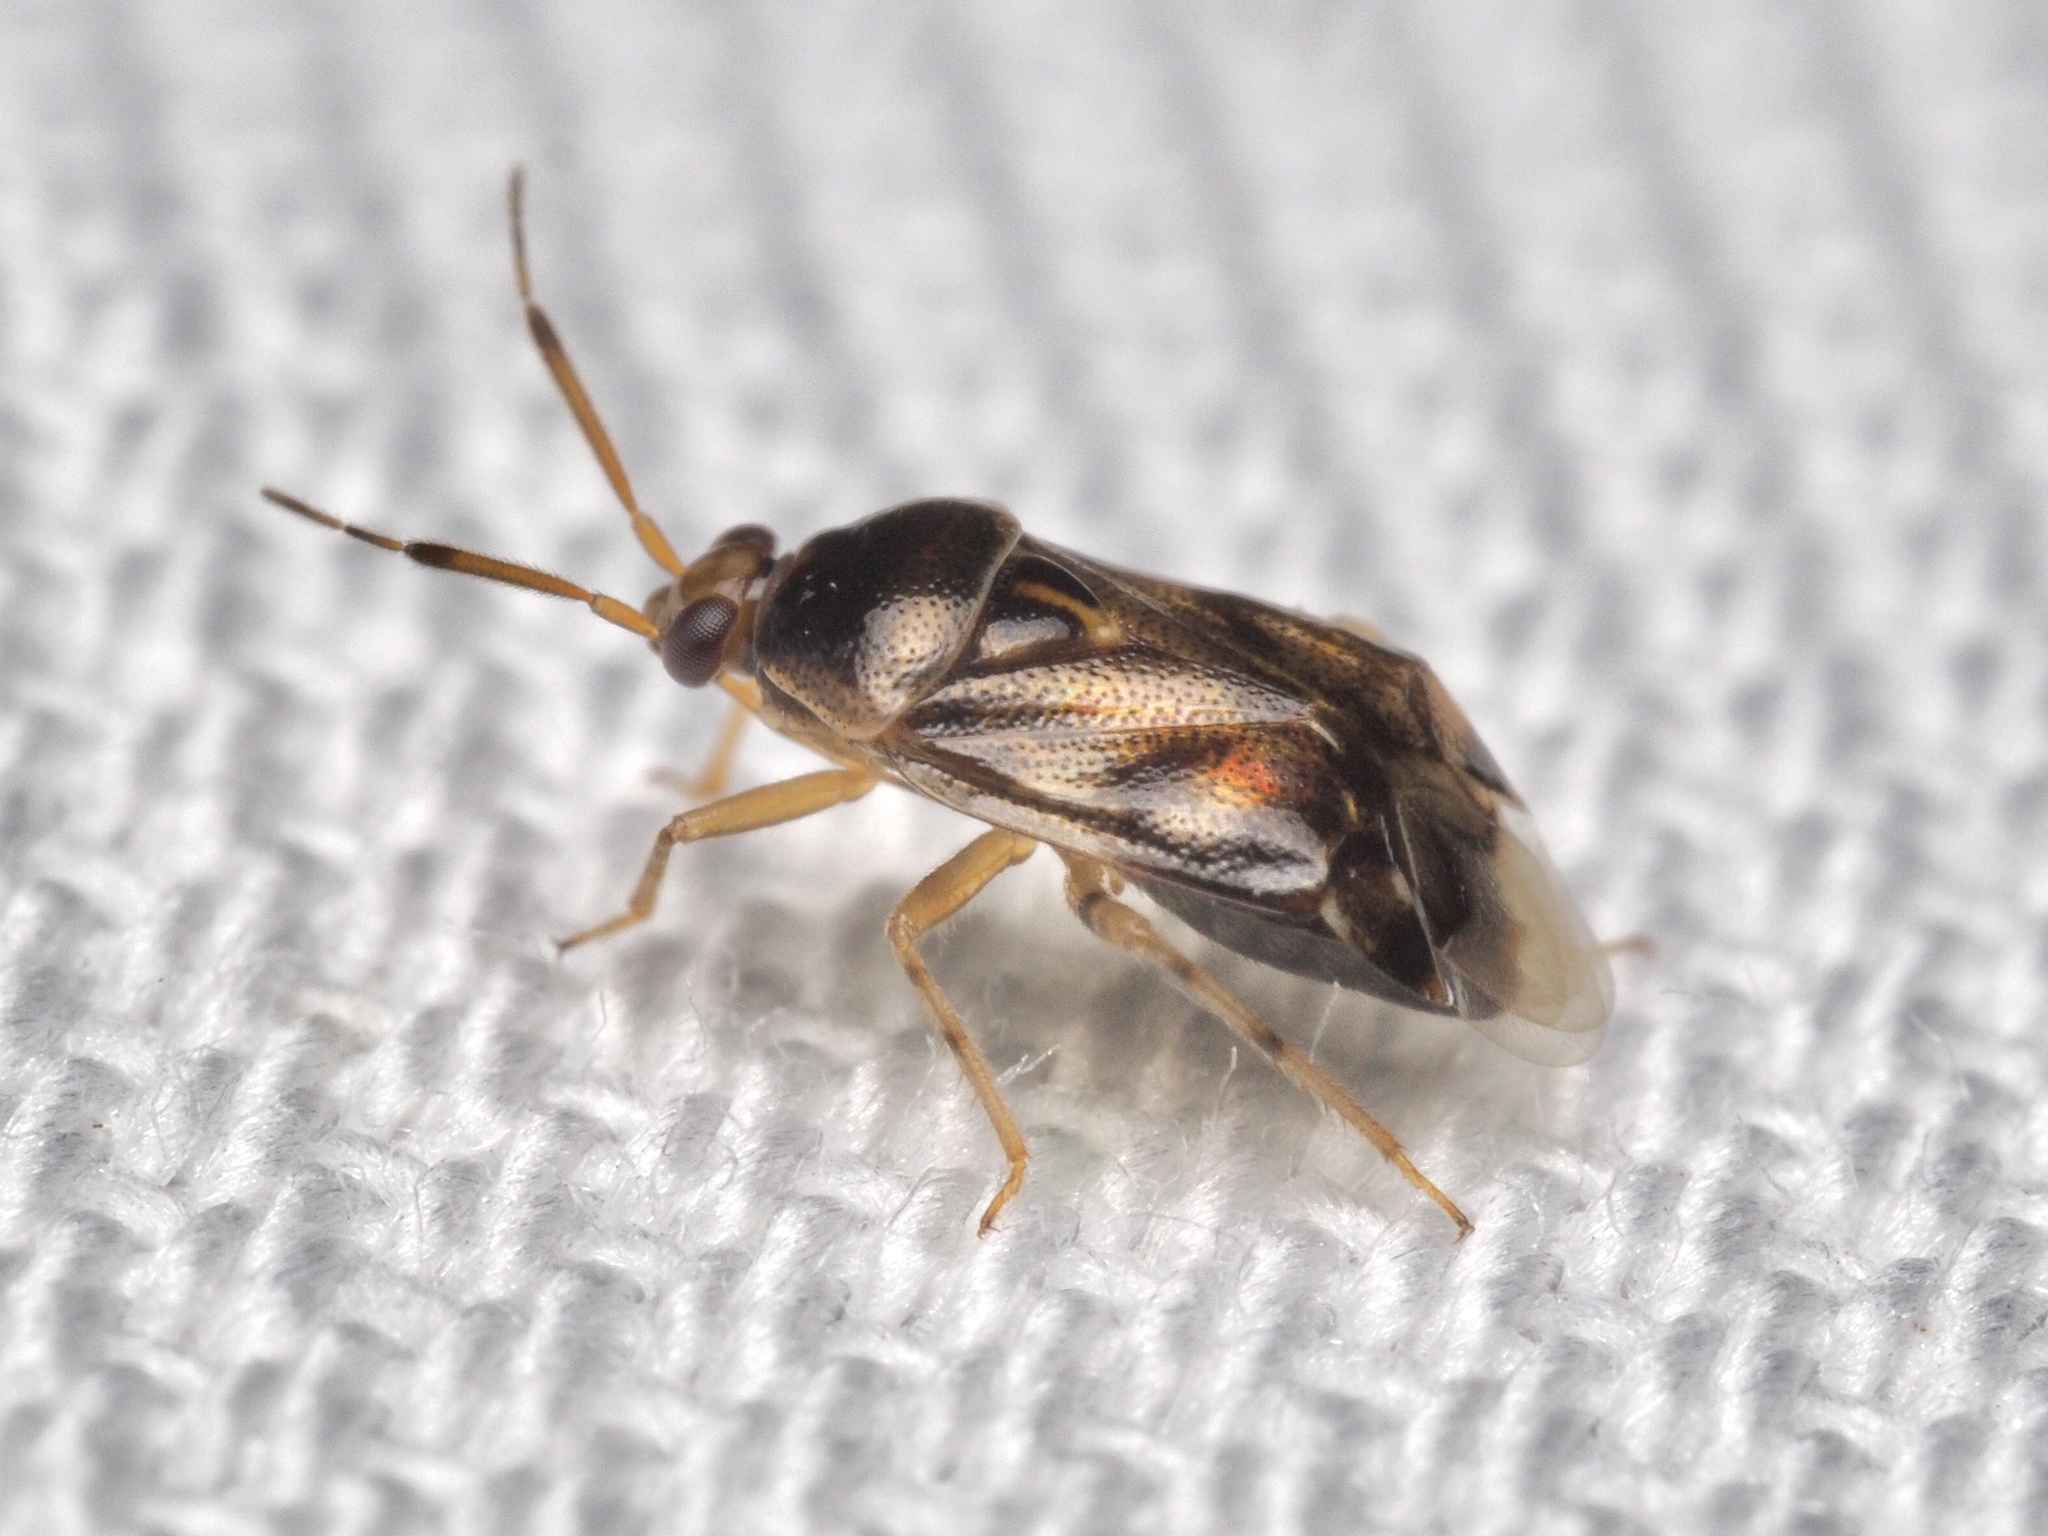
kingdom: Animalia
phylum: Arthropoda
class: Insecta
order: Hemiptera
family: Miridae
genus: Deraeocoris
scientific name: Deraeocoris lutescens
